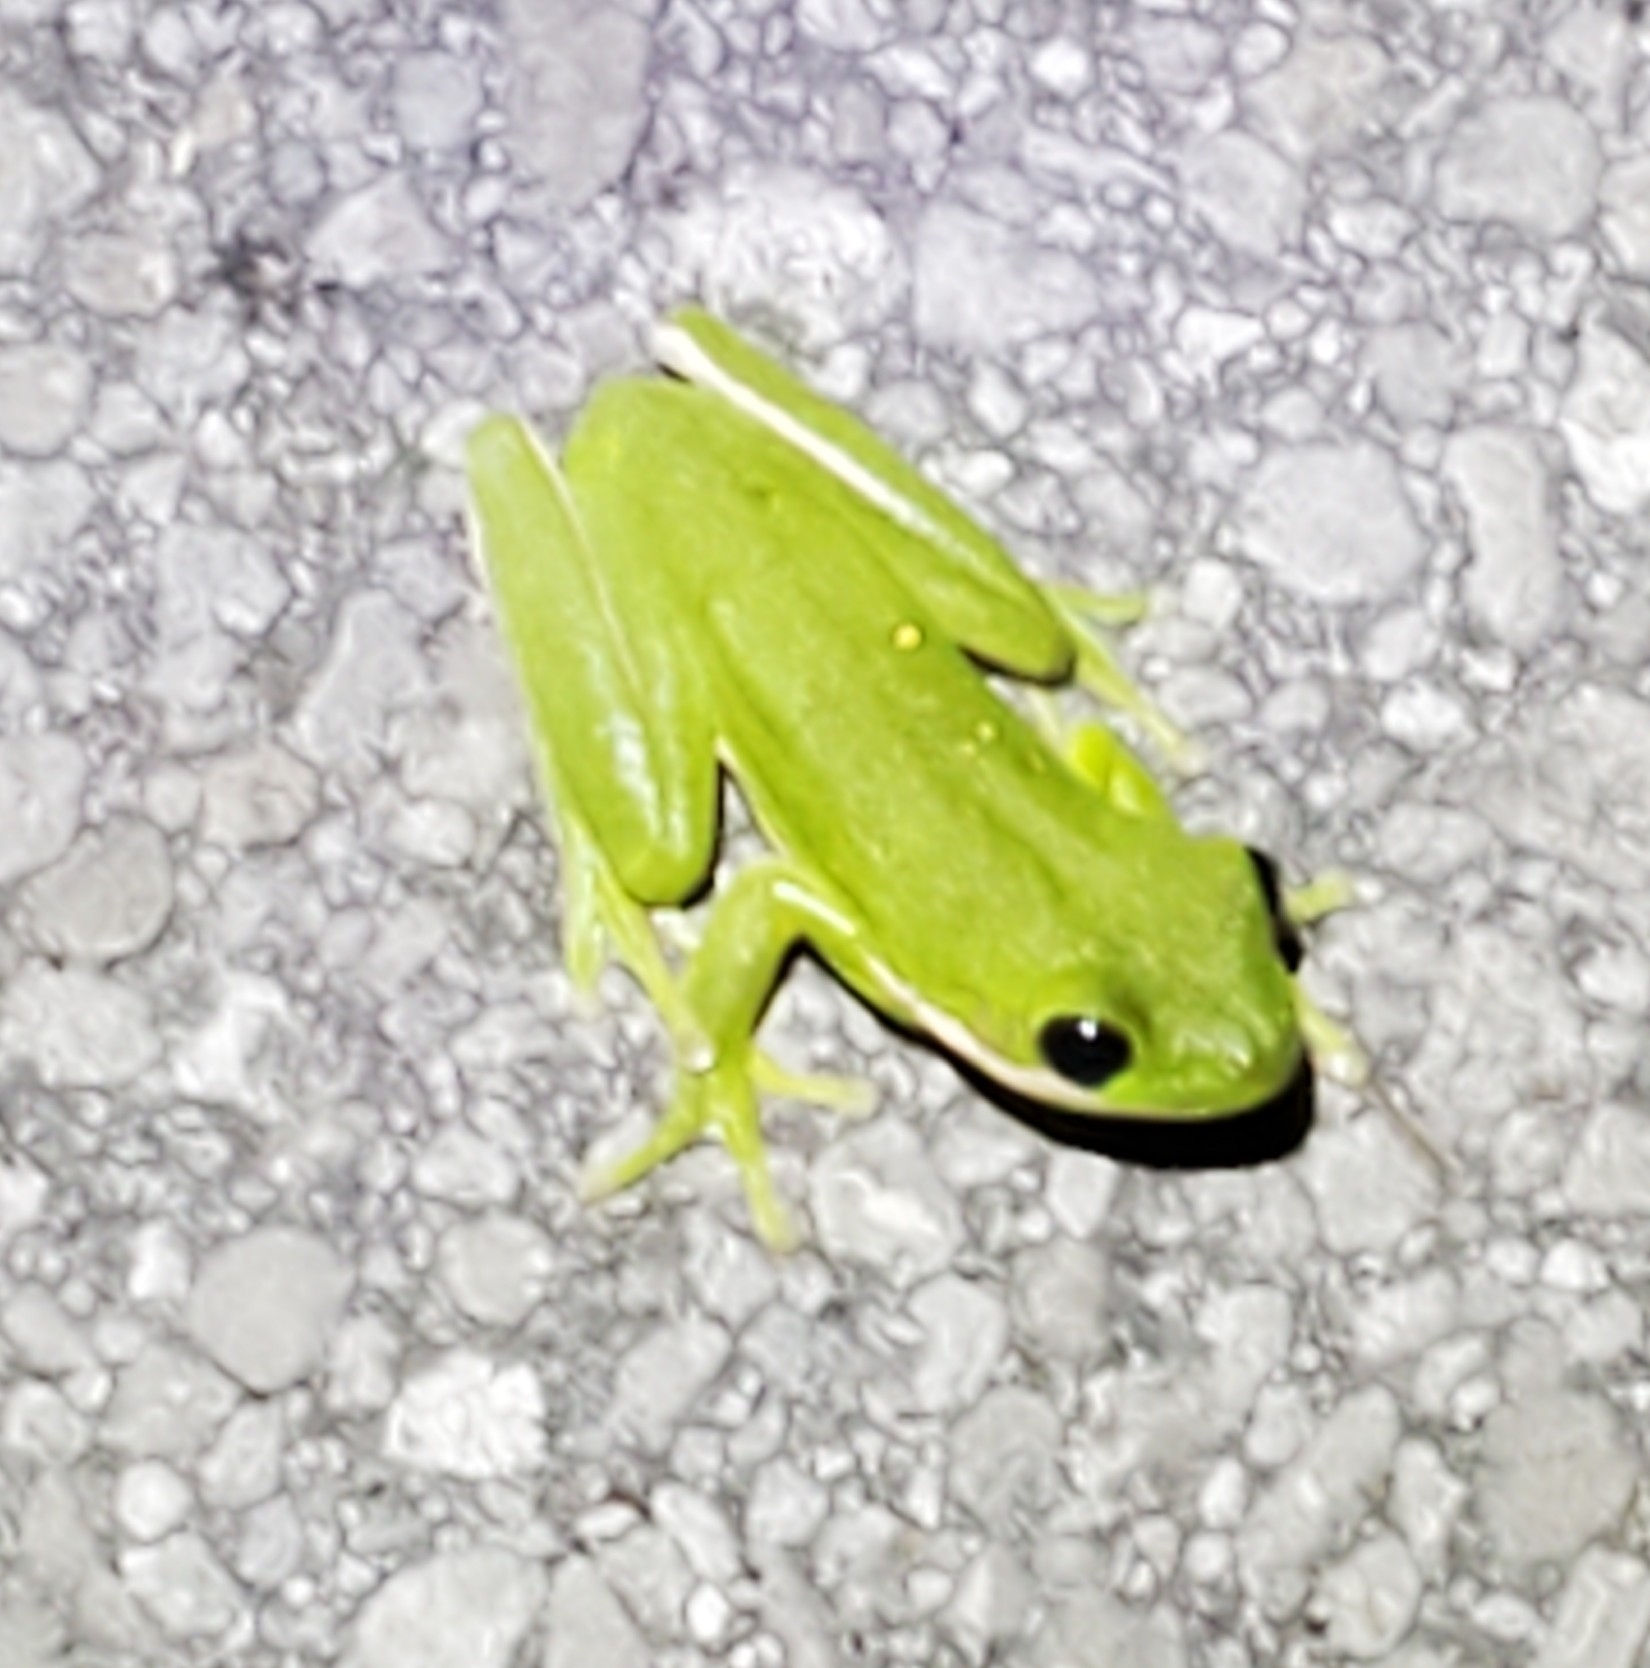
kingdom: Animalia
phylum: Chordata
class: Amphibia
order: Anura
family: Hylidae
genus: Dryophytes
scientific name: Dryophytes cinereus
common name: Green treefrog
